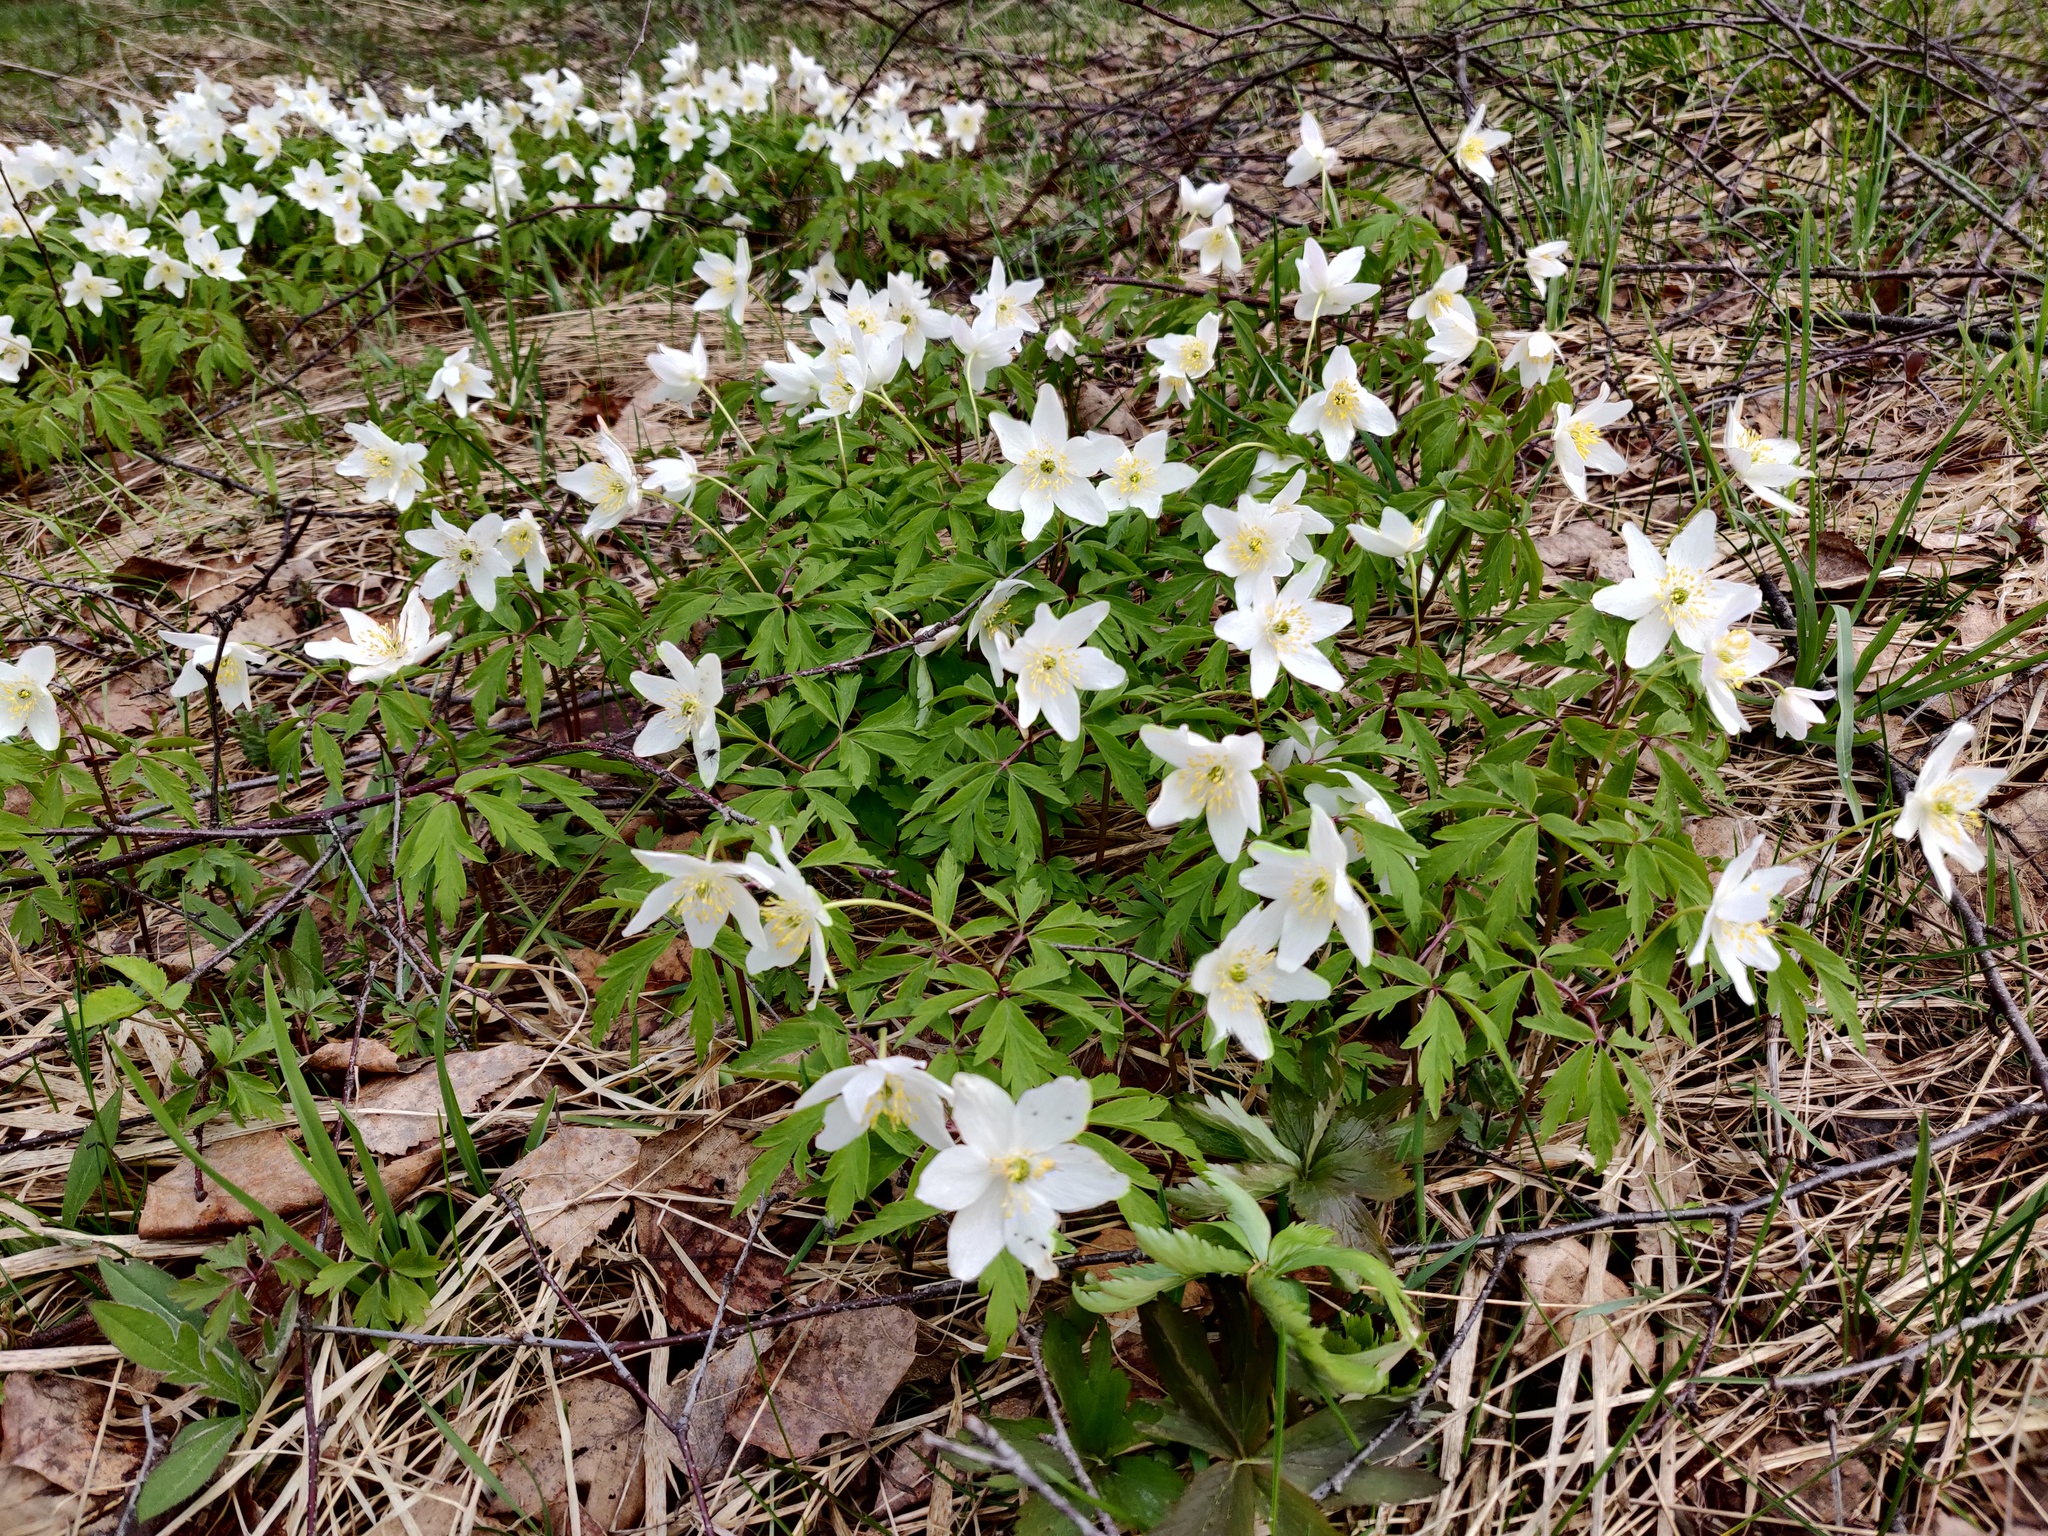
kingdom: Plantae
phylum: Tracheophyta
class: Magnoliopsida
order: Ranunculales
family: Ranunculaceae
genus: Anemone
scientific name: Anemone nemorosa
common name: Wood anemone
